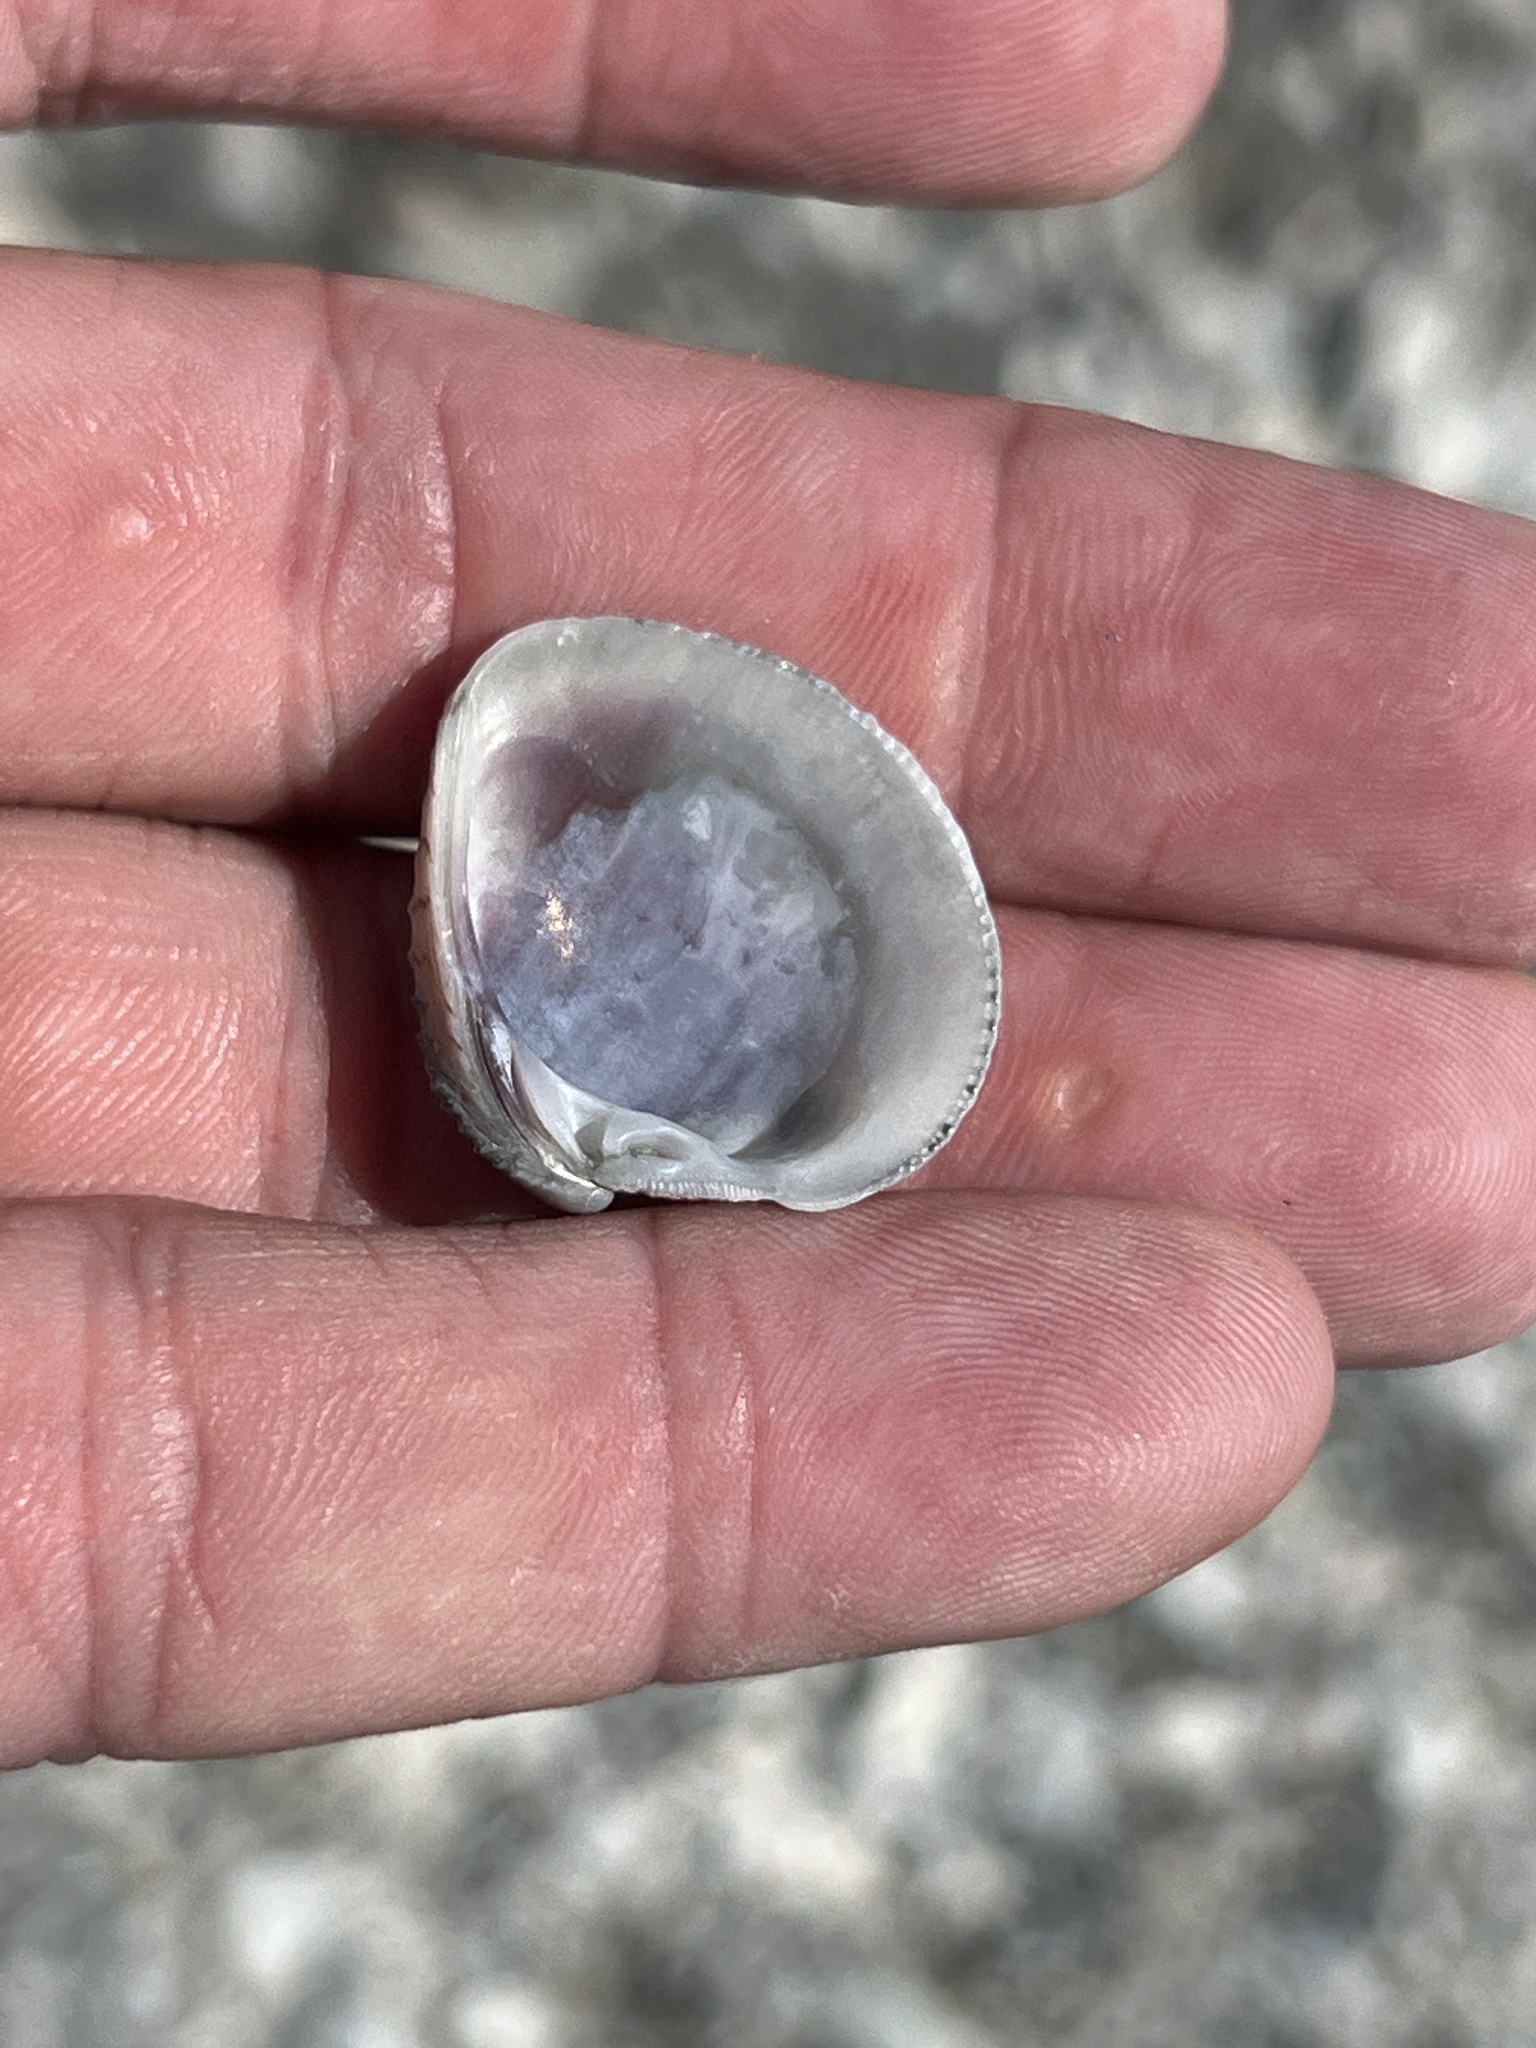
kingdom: Animalia
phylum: Mollusca
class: Bivalvia
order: Venerida
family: Veneridae
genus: Chione
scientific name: Chione elevata
